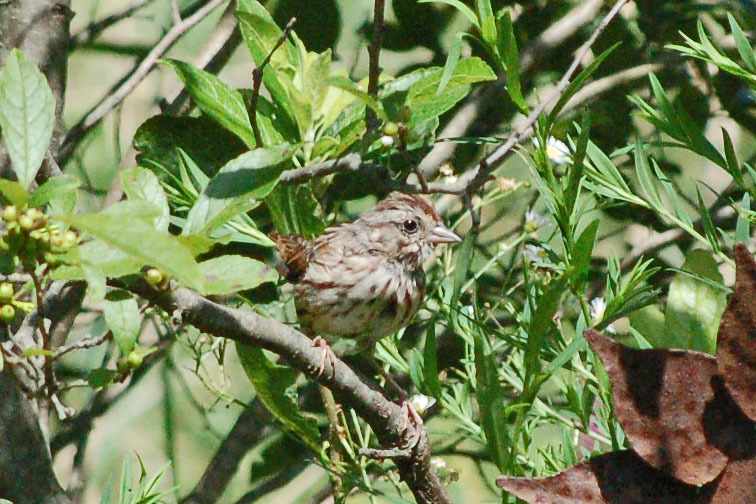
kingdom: Animalia
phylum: Chordata
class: Aves
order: Passeriformes
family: Passerellidae
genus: Melospiza
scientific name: Melospiza melodia
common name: Song sparrow
